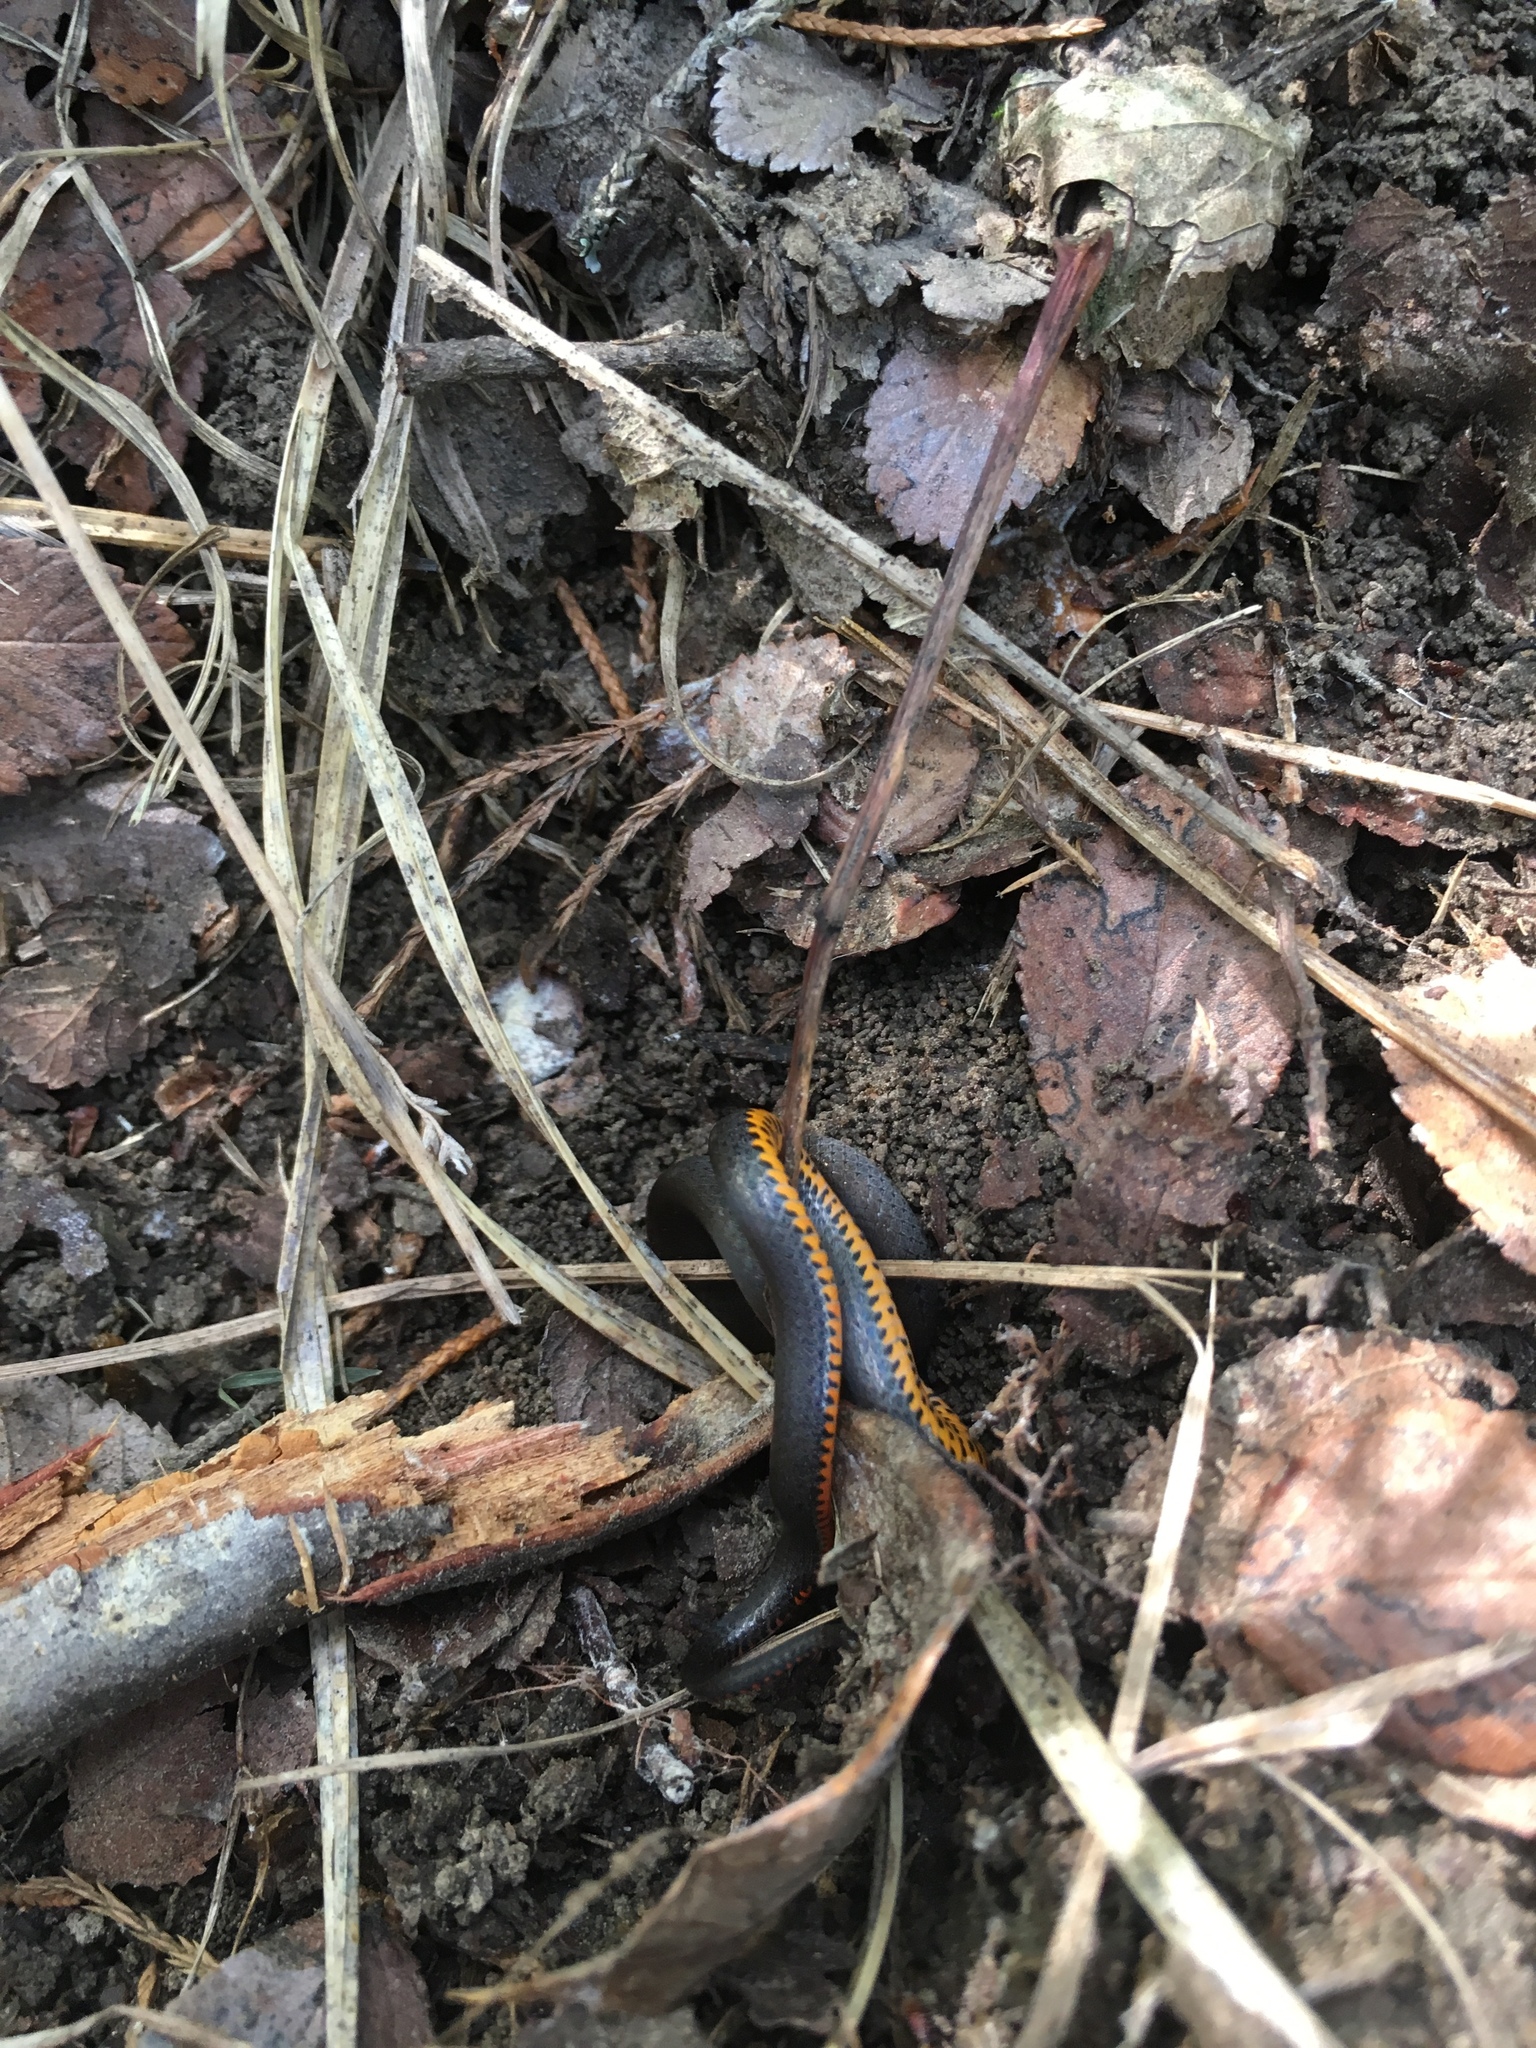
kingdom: Animalia
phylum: Chordata
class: Squamata
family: Colubridae
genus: Diadophis
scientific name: Diadophis punctatus
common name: Ringneck snake
